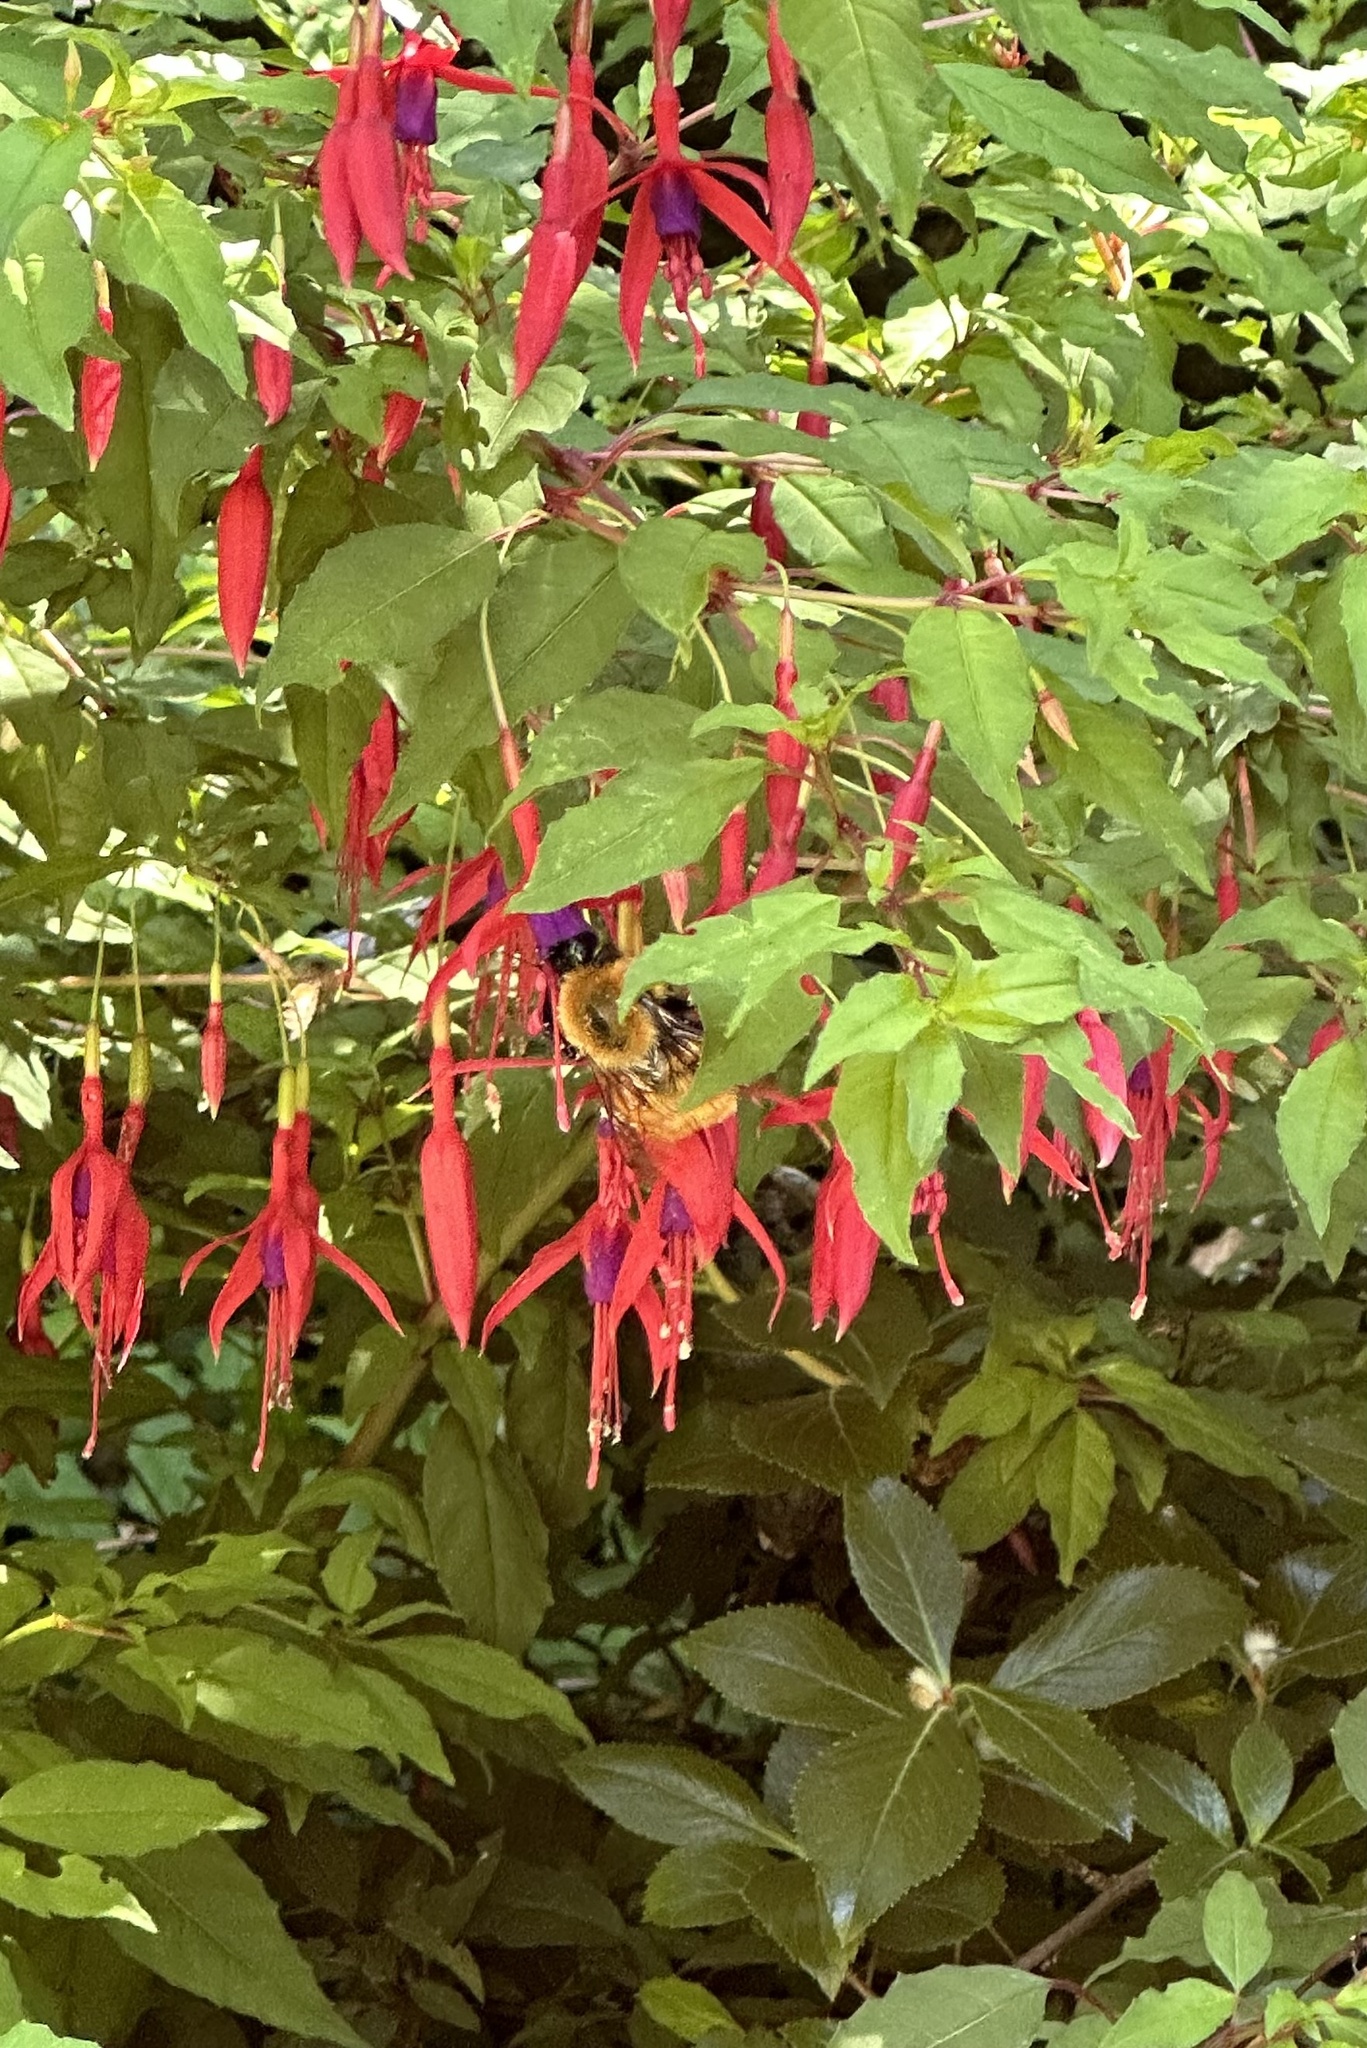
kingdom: Animalia
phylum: Arthropoda
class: Insecta
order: Hymenoptera
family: Apidae
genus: Bombus
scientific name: Bombus dahlbomii
